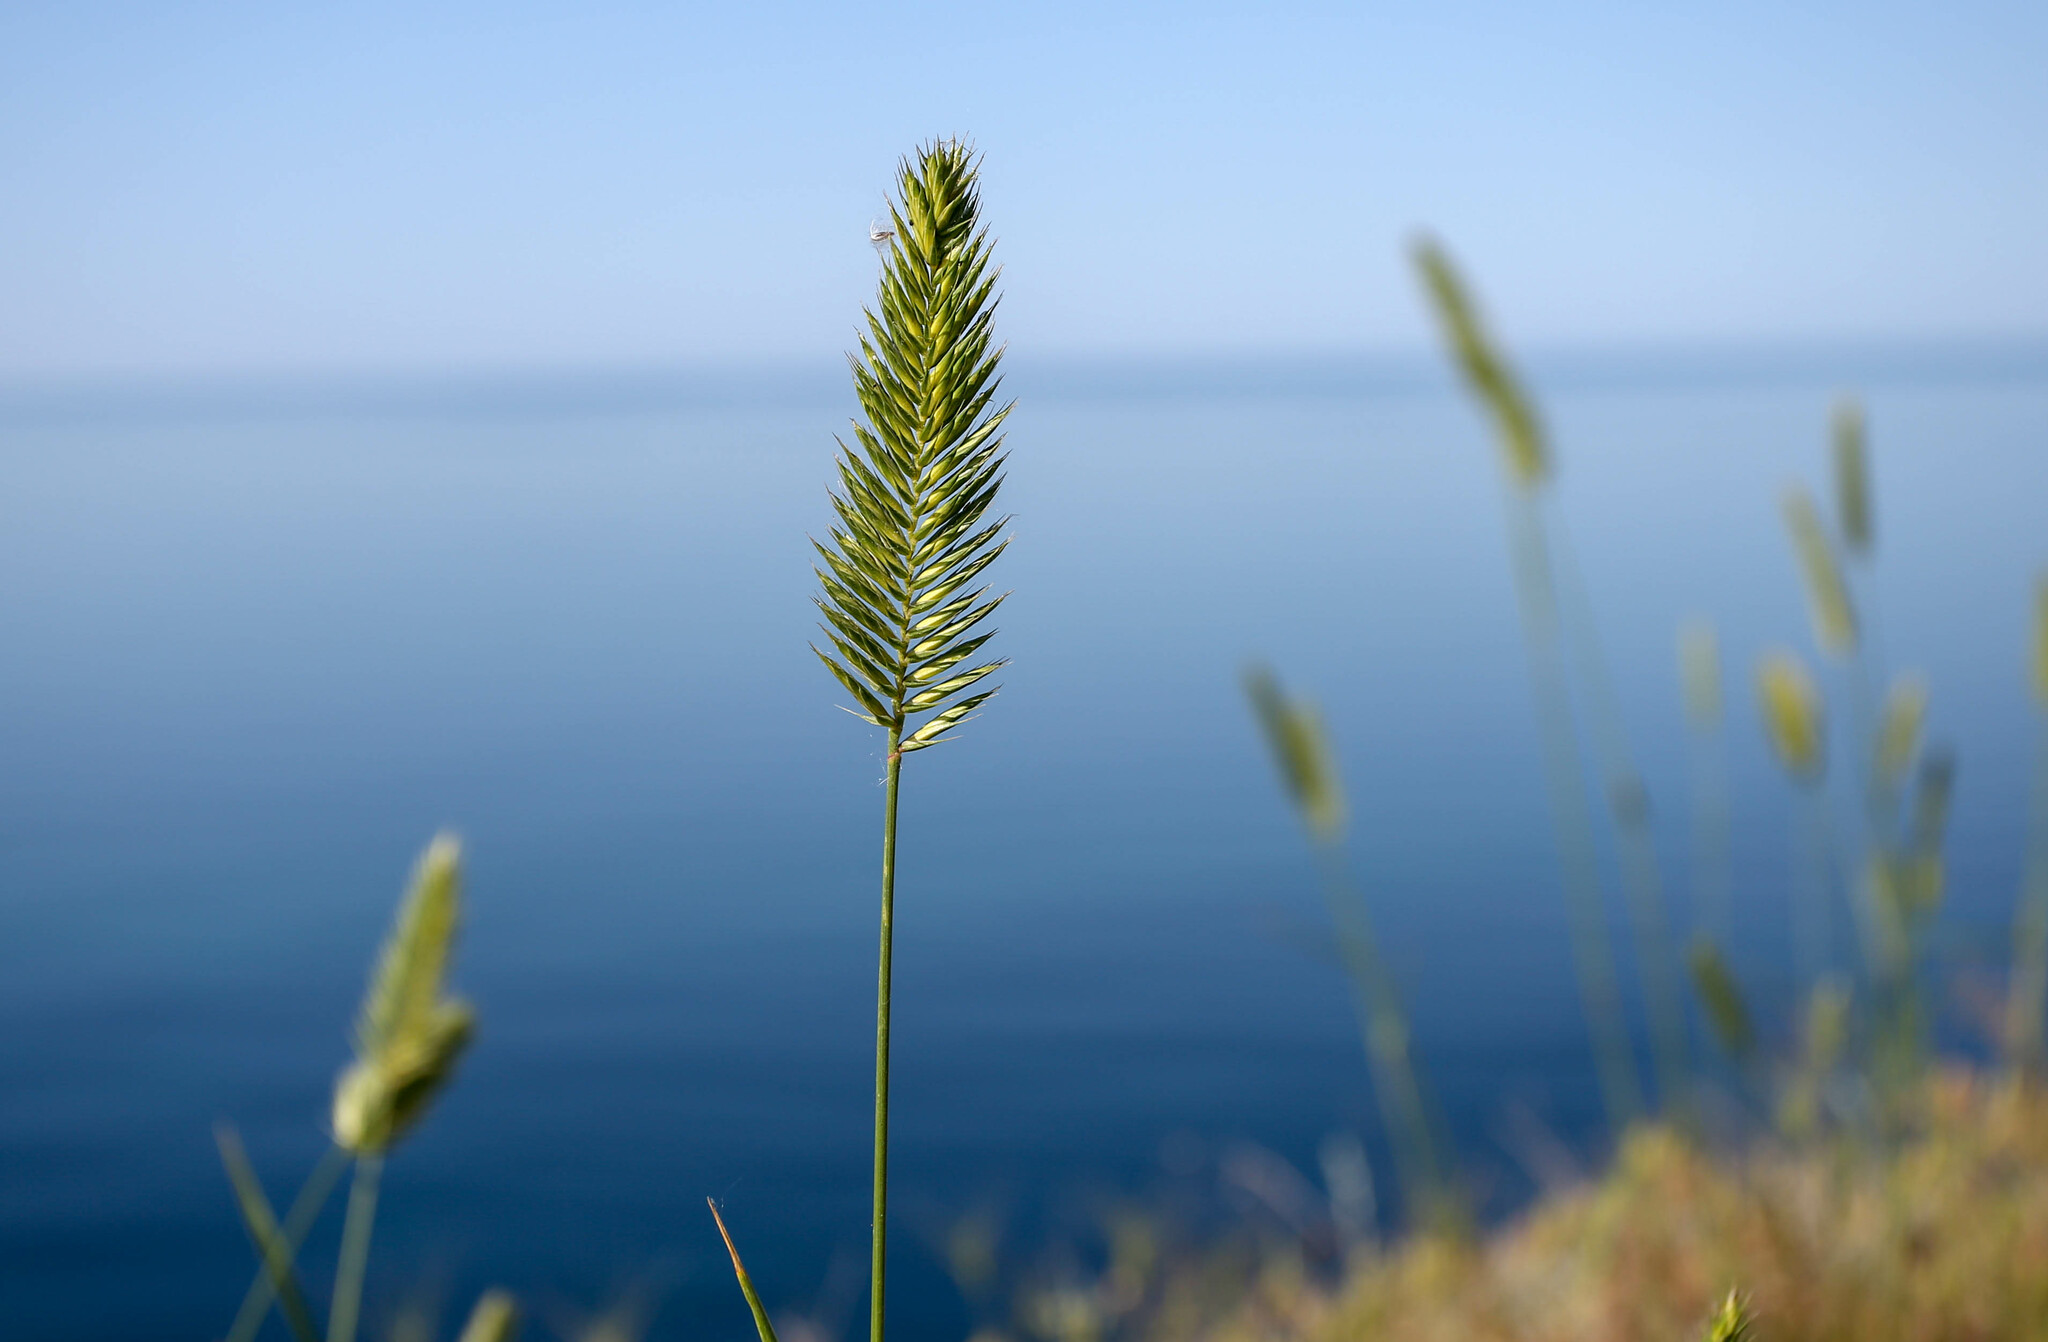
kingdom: Plantae
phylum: Tracheophyta
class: Liliopsida
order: Poales
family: Poaceae
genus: Agropyron
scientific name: Agropyron cristatum
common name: Crested wheatgrass
